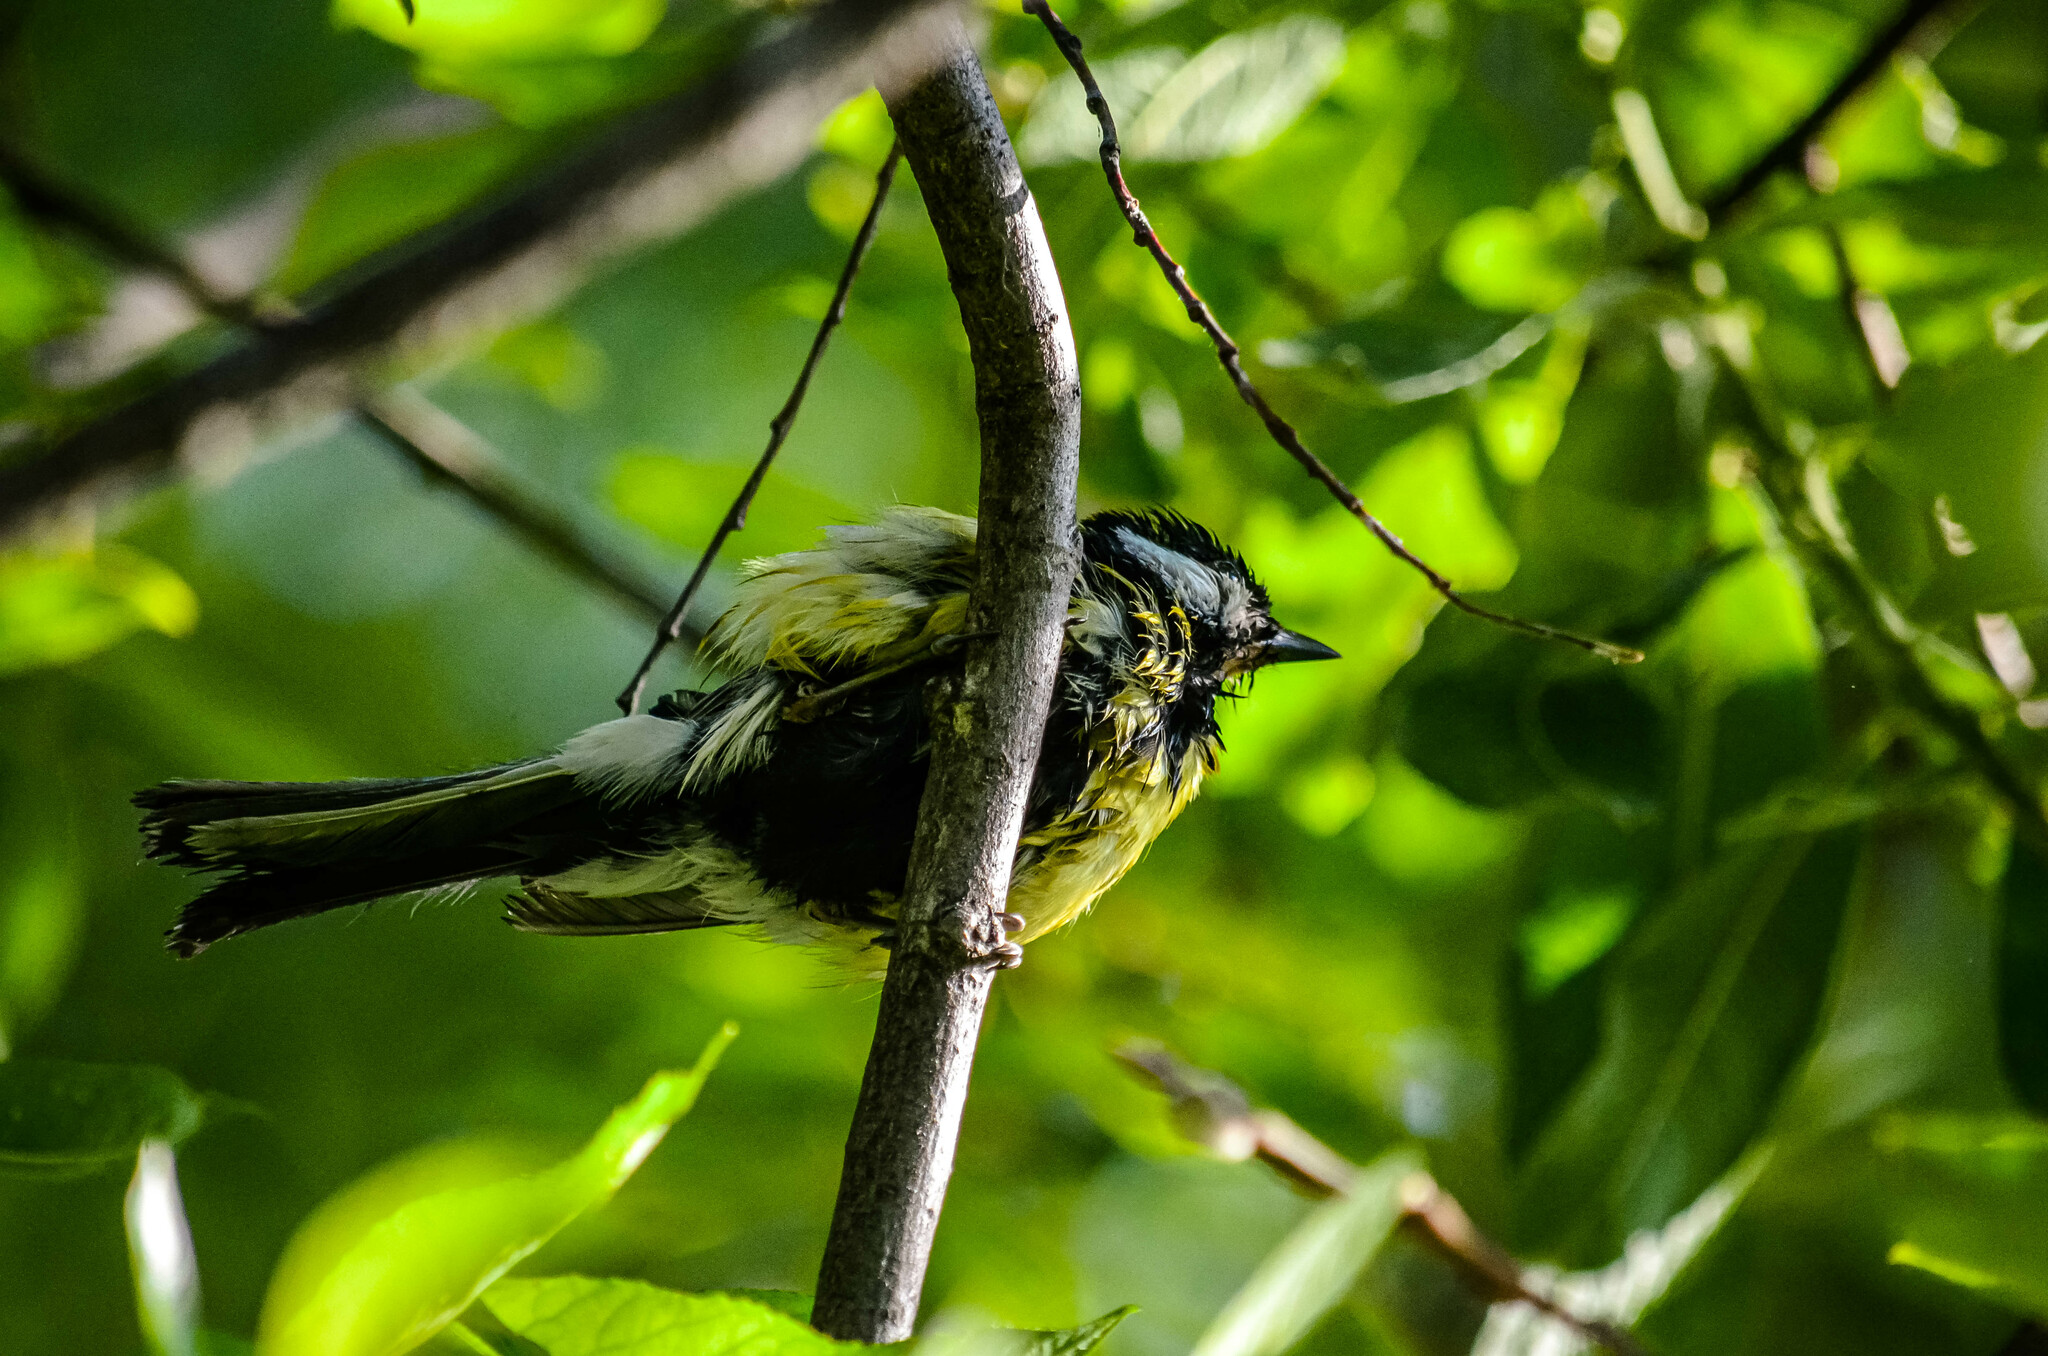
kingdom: Animalia
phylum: Chordata
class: Aves
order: Passeriformes
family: Paridae
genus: Parus
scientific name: Parus major
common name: Great tit
